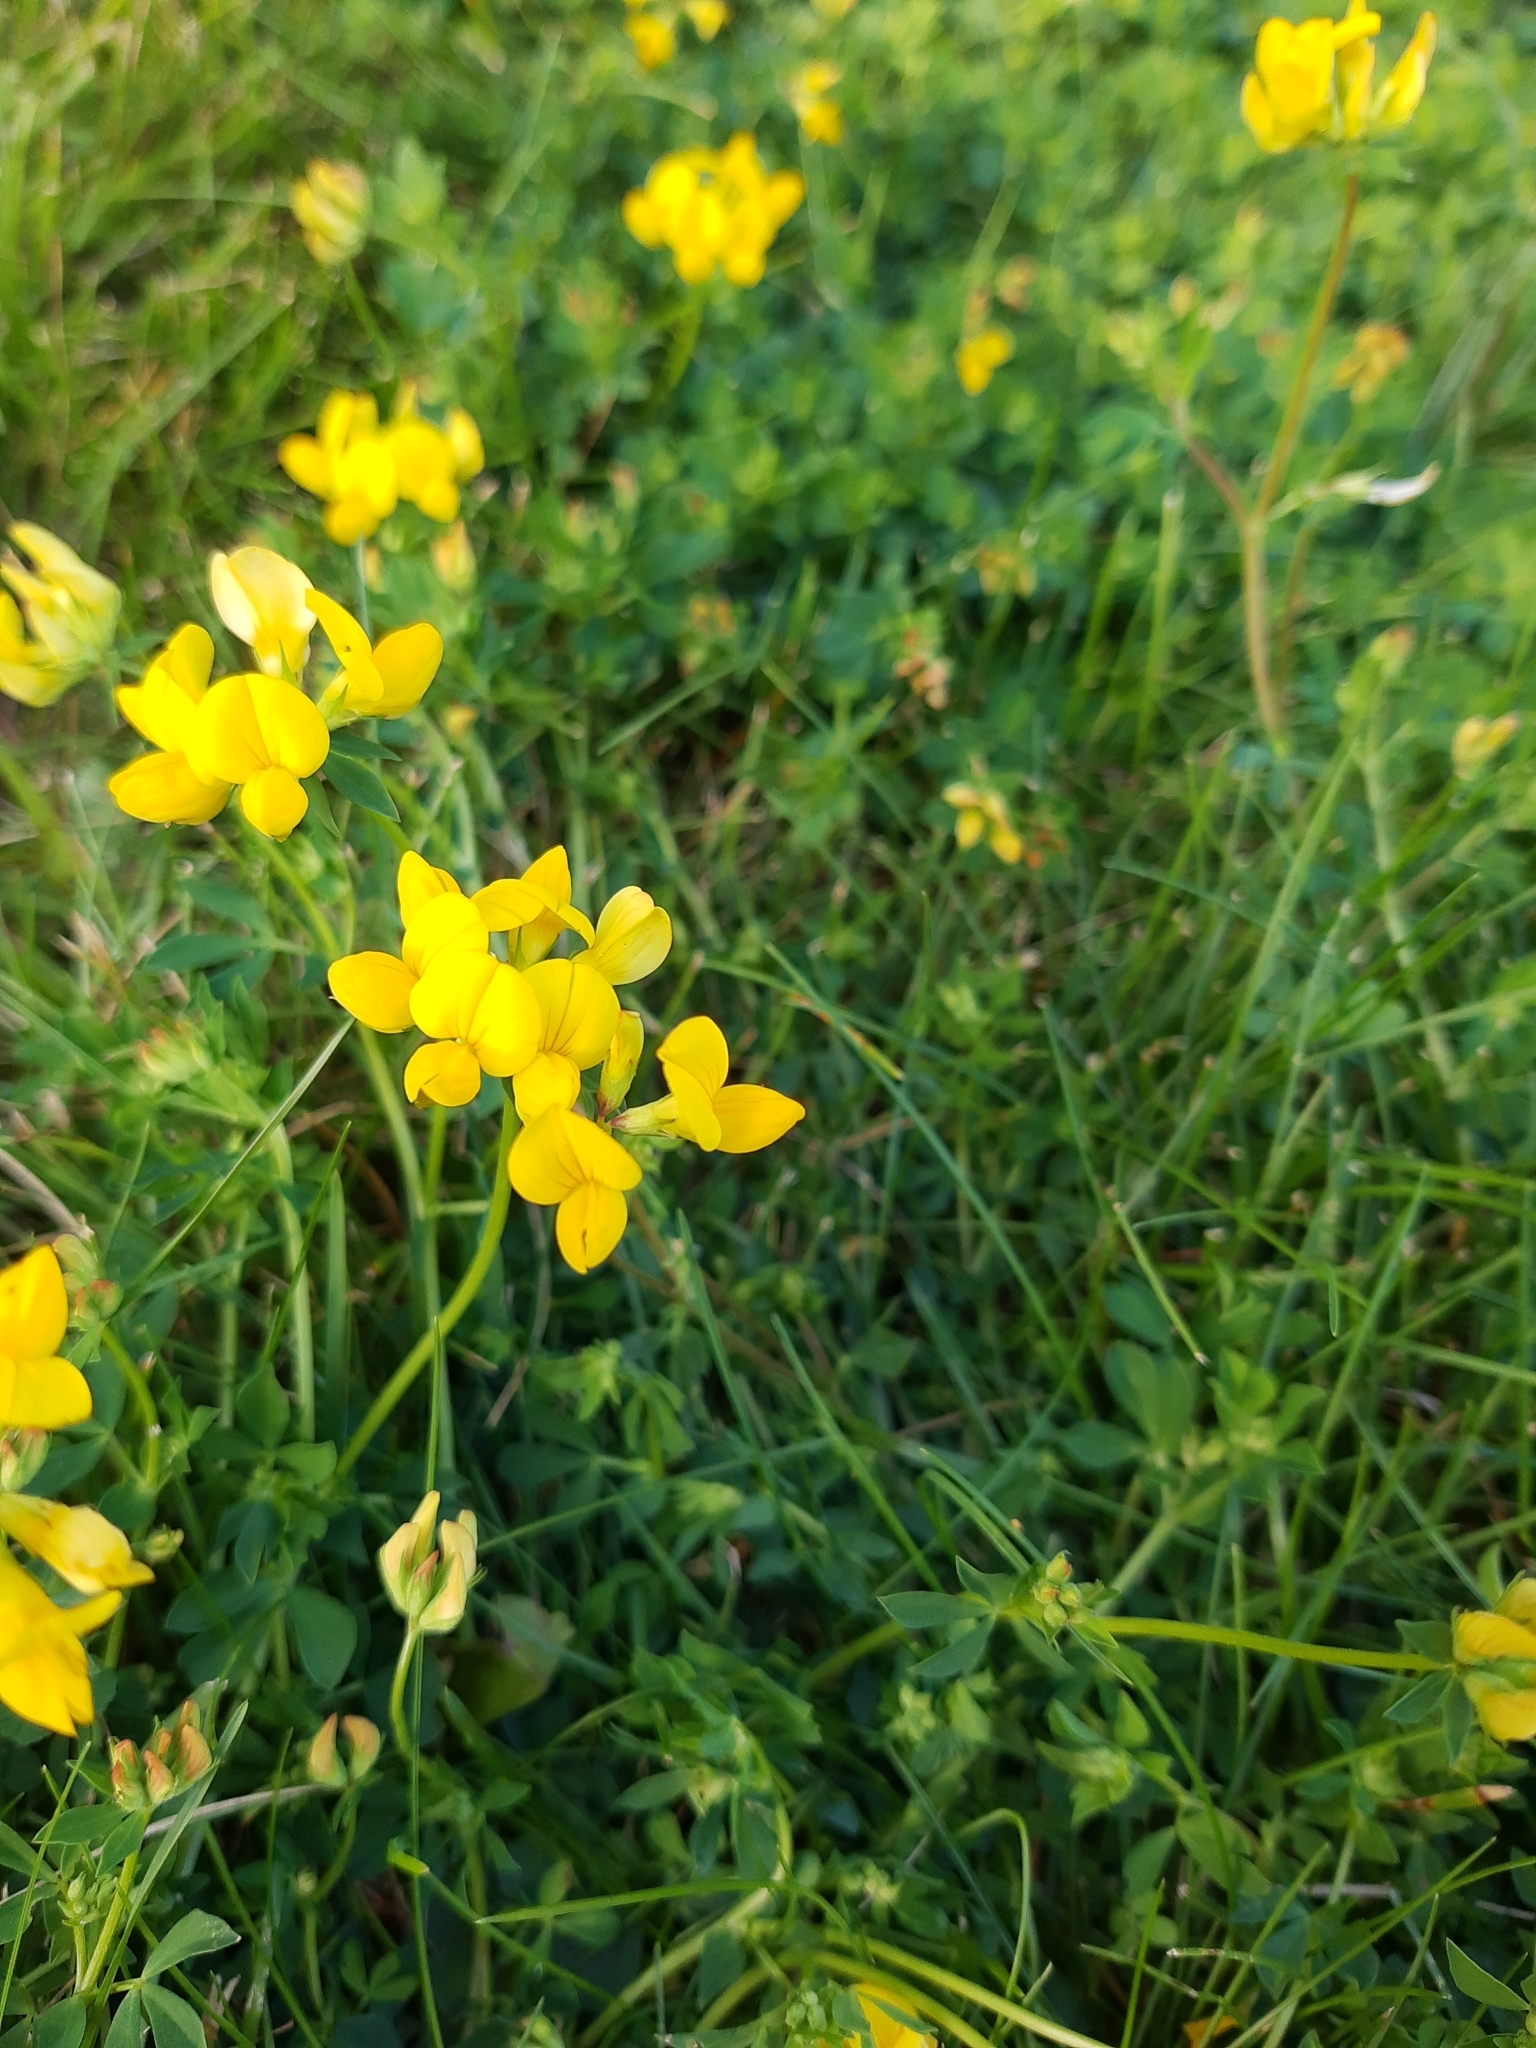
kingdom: Plantae
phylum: Tracheophyta
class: Magnoliopsida
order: Fabales
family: Fabaceae
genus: Lotus
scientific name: Lotus corniculatus
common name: Common bird's-foot-trefoil
